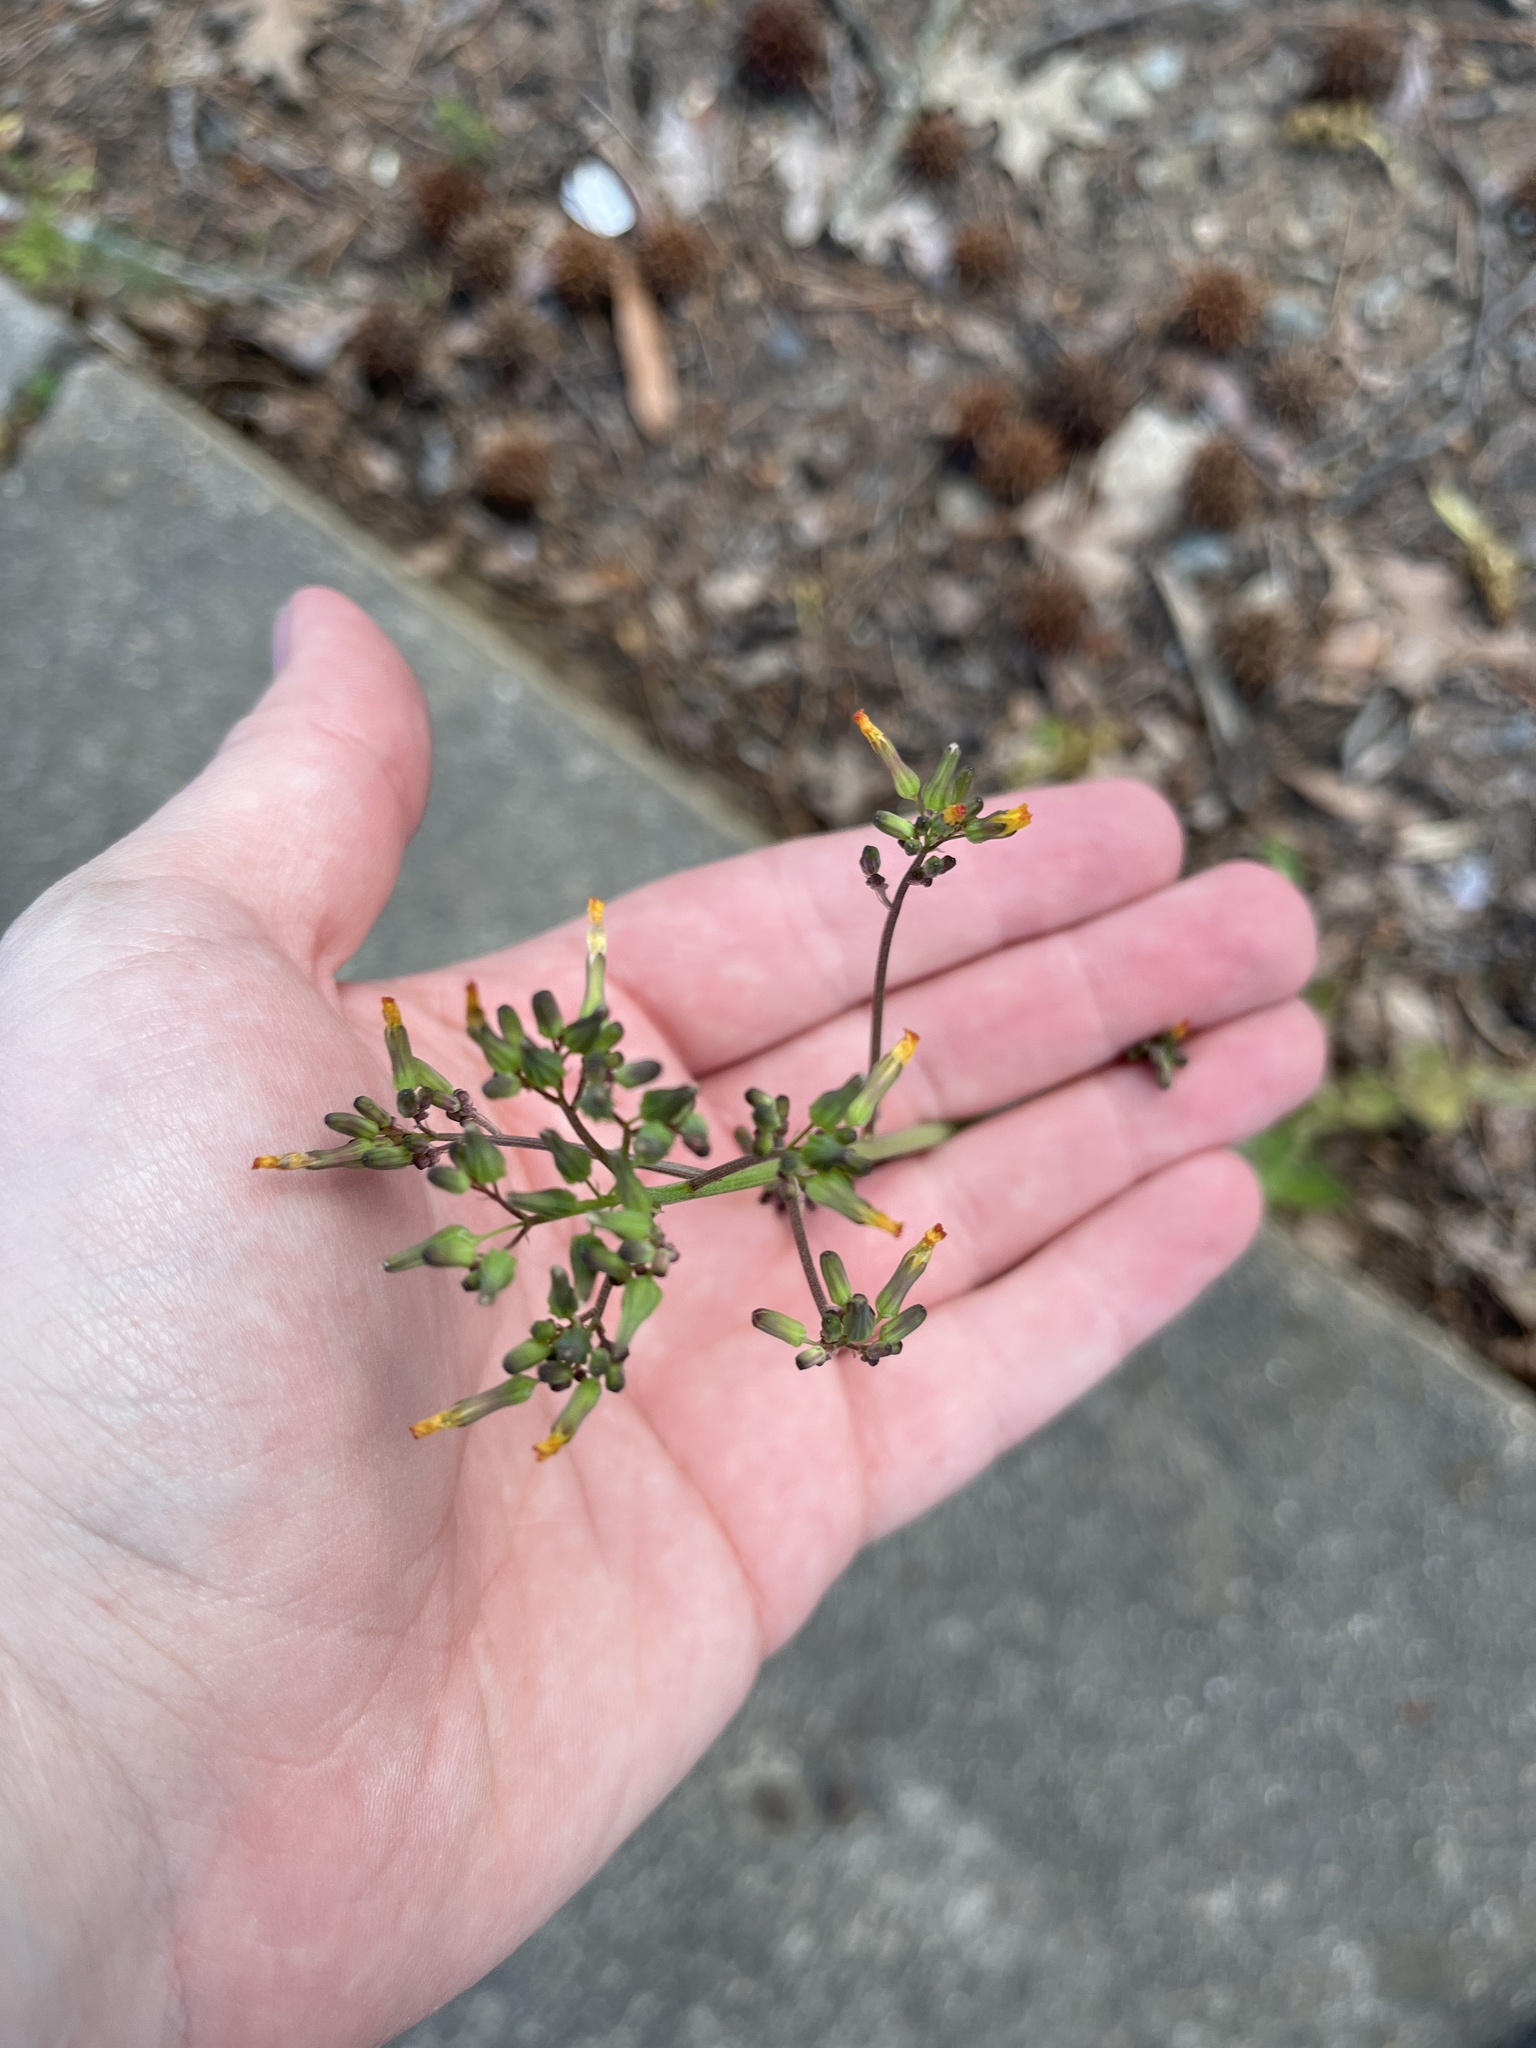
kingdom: Plantae
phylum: Tracheophyta
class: Magnoliopsida
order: Asterales
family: Asteraceae
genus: Youngia
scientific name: Youngia japonica
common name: Oriental false hawksbeard
